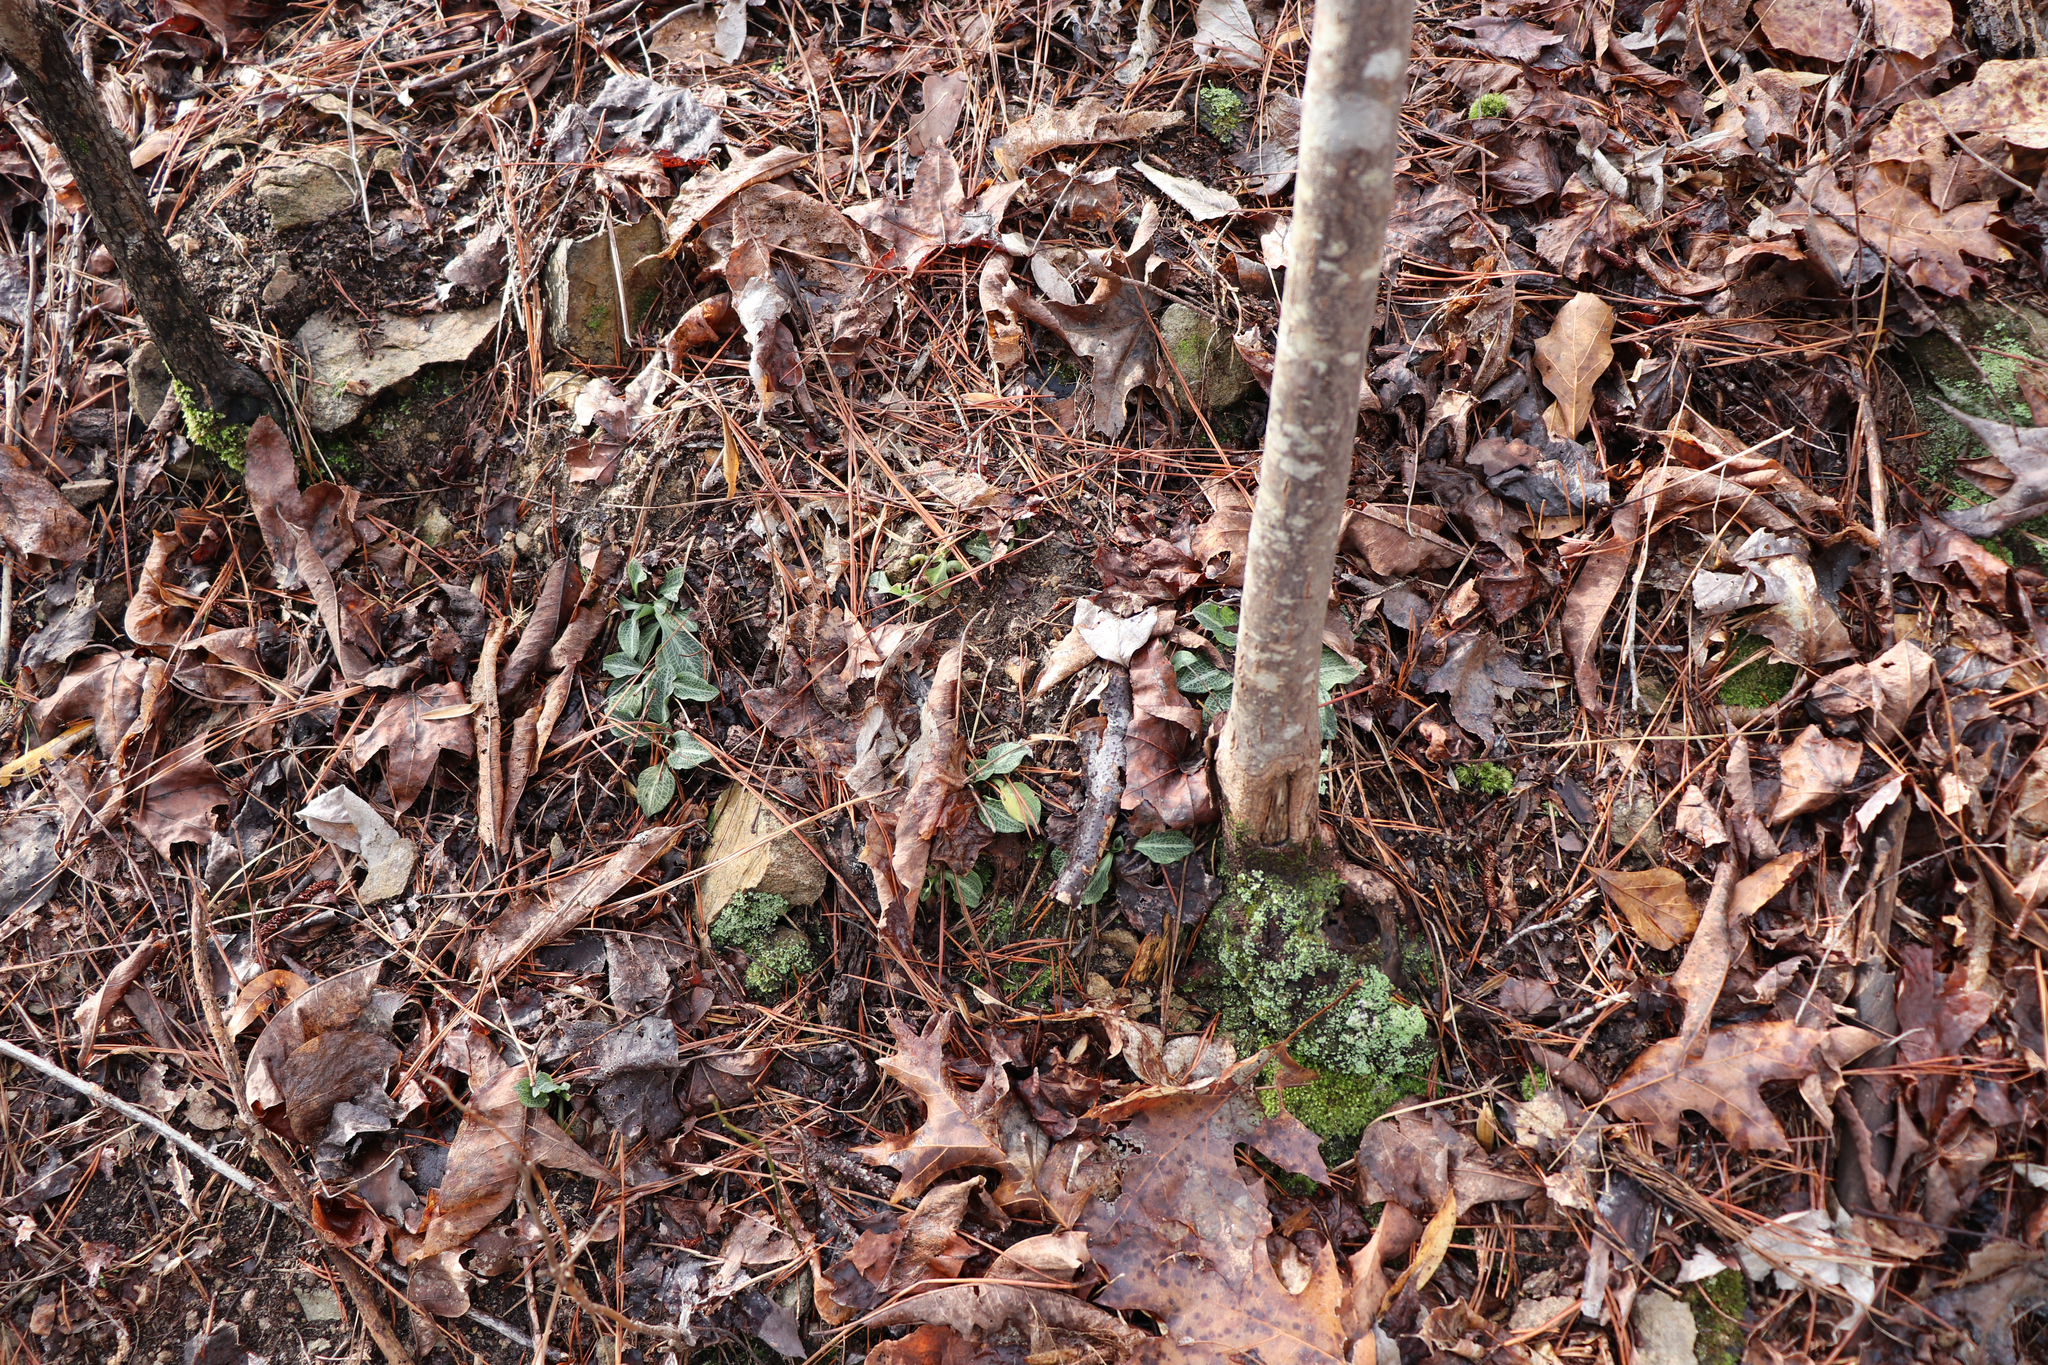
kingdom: Plantae
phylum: Tracheophyta
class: Liliopsida
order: Asparagales
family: Orchidaceae
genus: Goodyera
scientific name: Goodyera pubescens
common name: Downy rattlesnake-plantain
